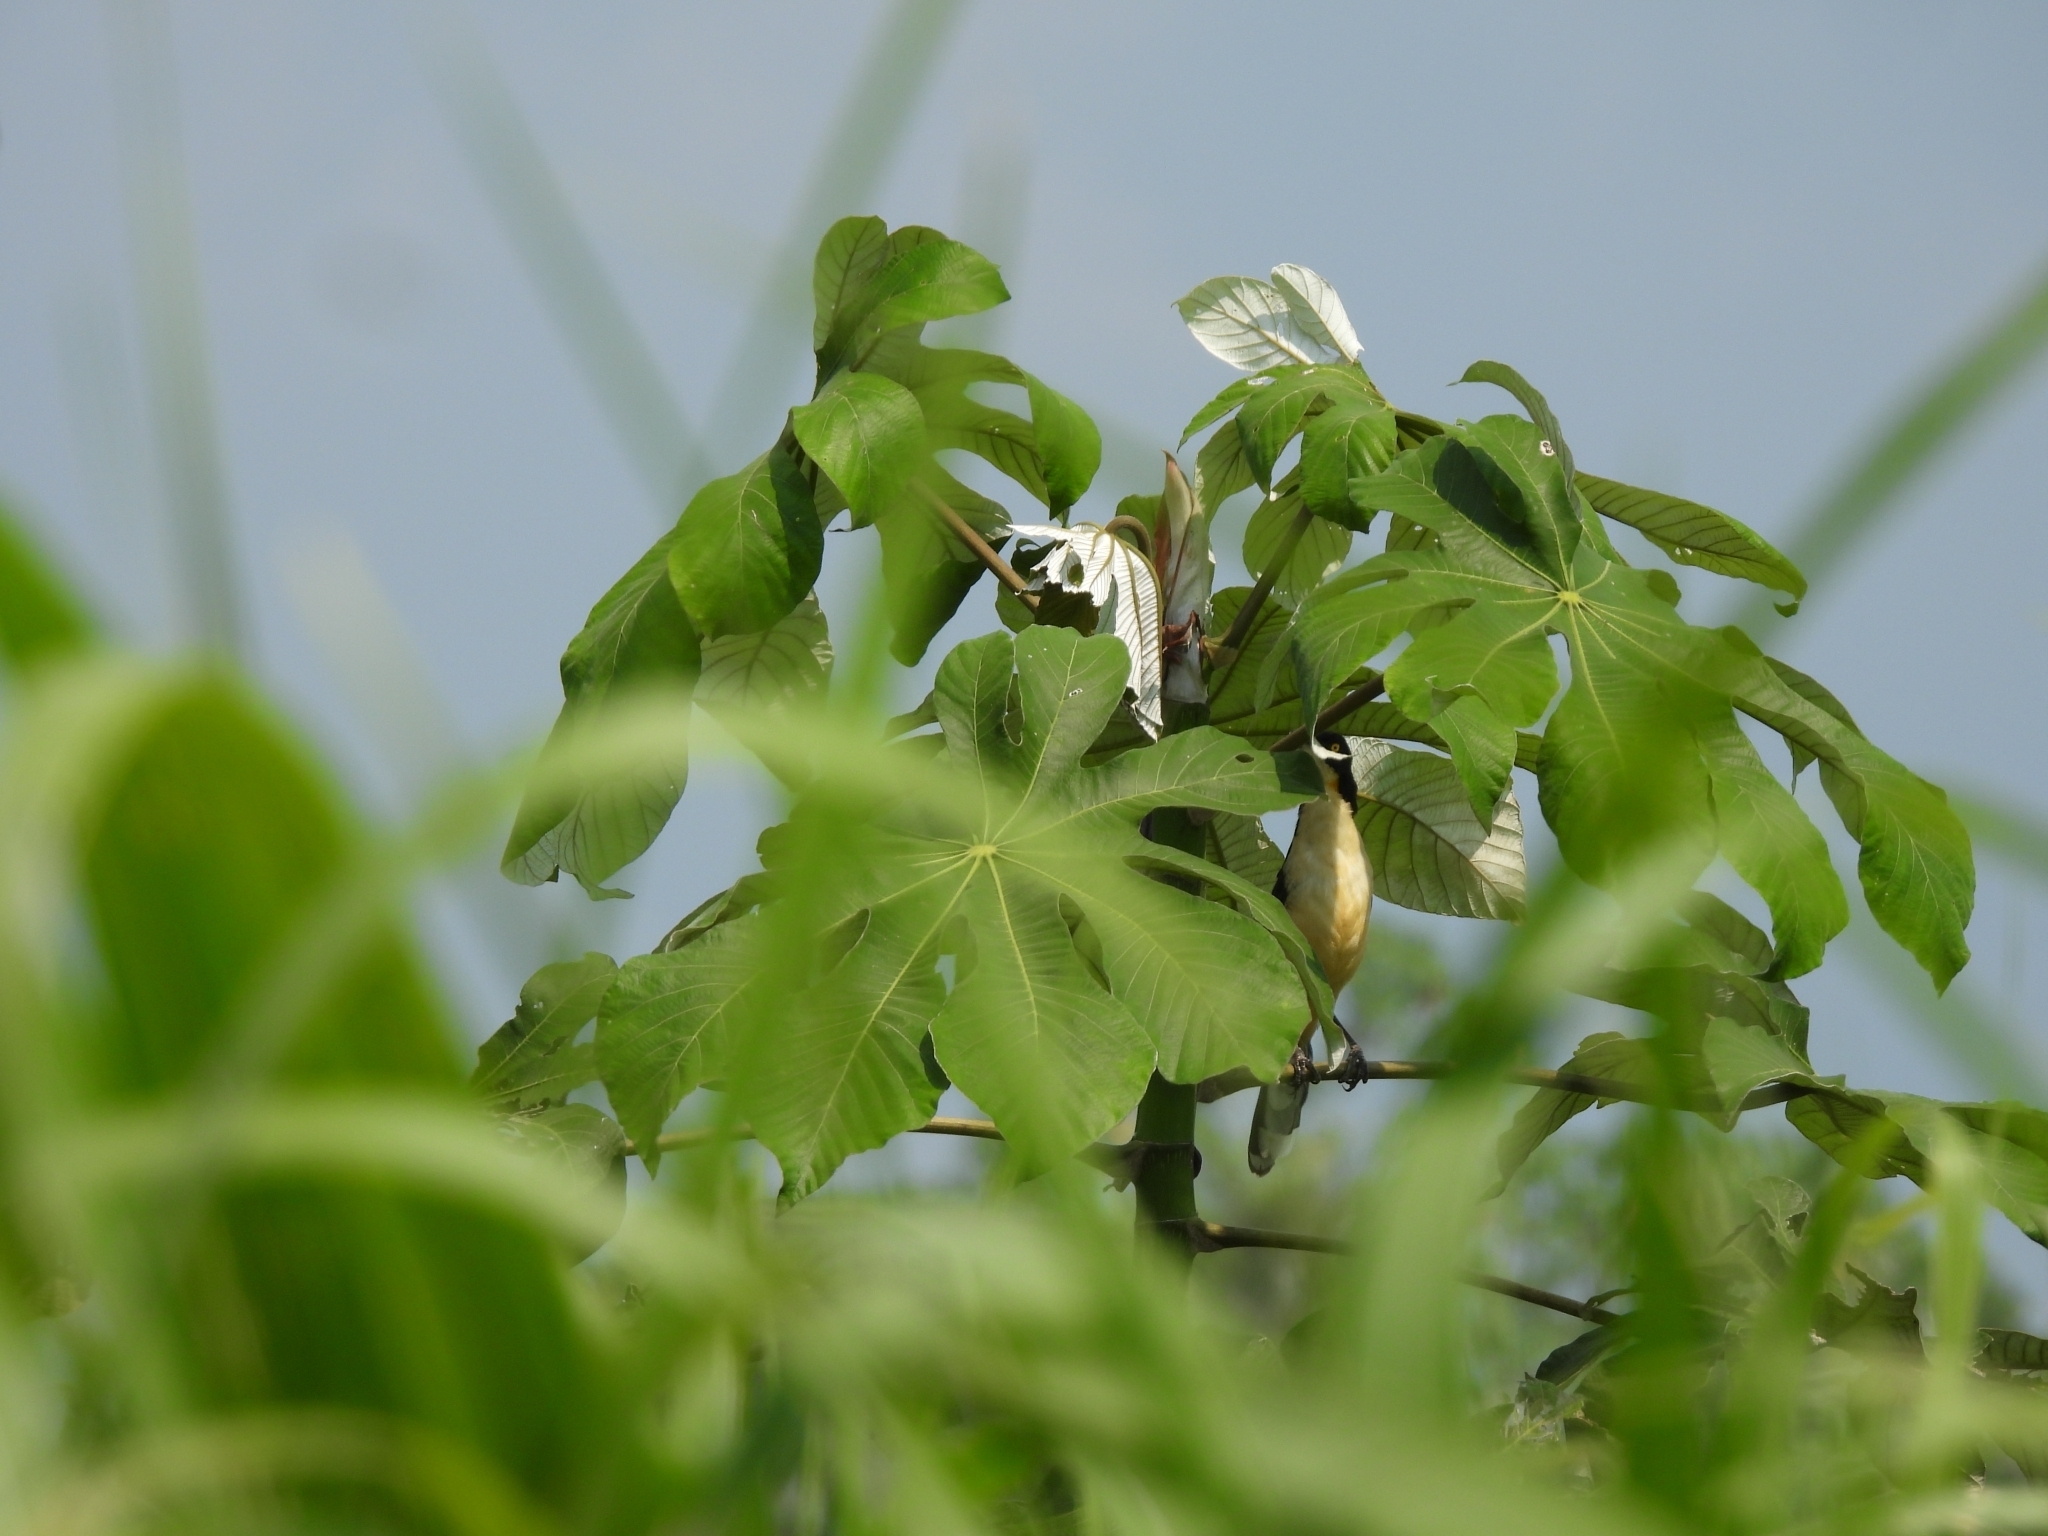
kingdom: Animalia
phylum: Chordata
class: Aves
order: Passeriformes
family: Donacobiidae
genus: Donacobius
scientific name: Donacobius atricapilla
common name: Black-capped donacobius
